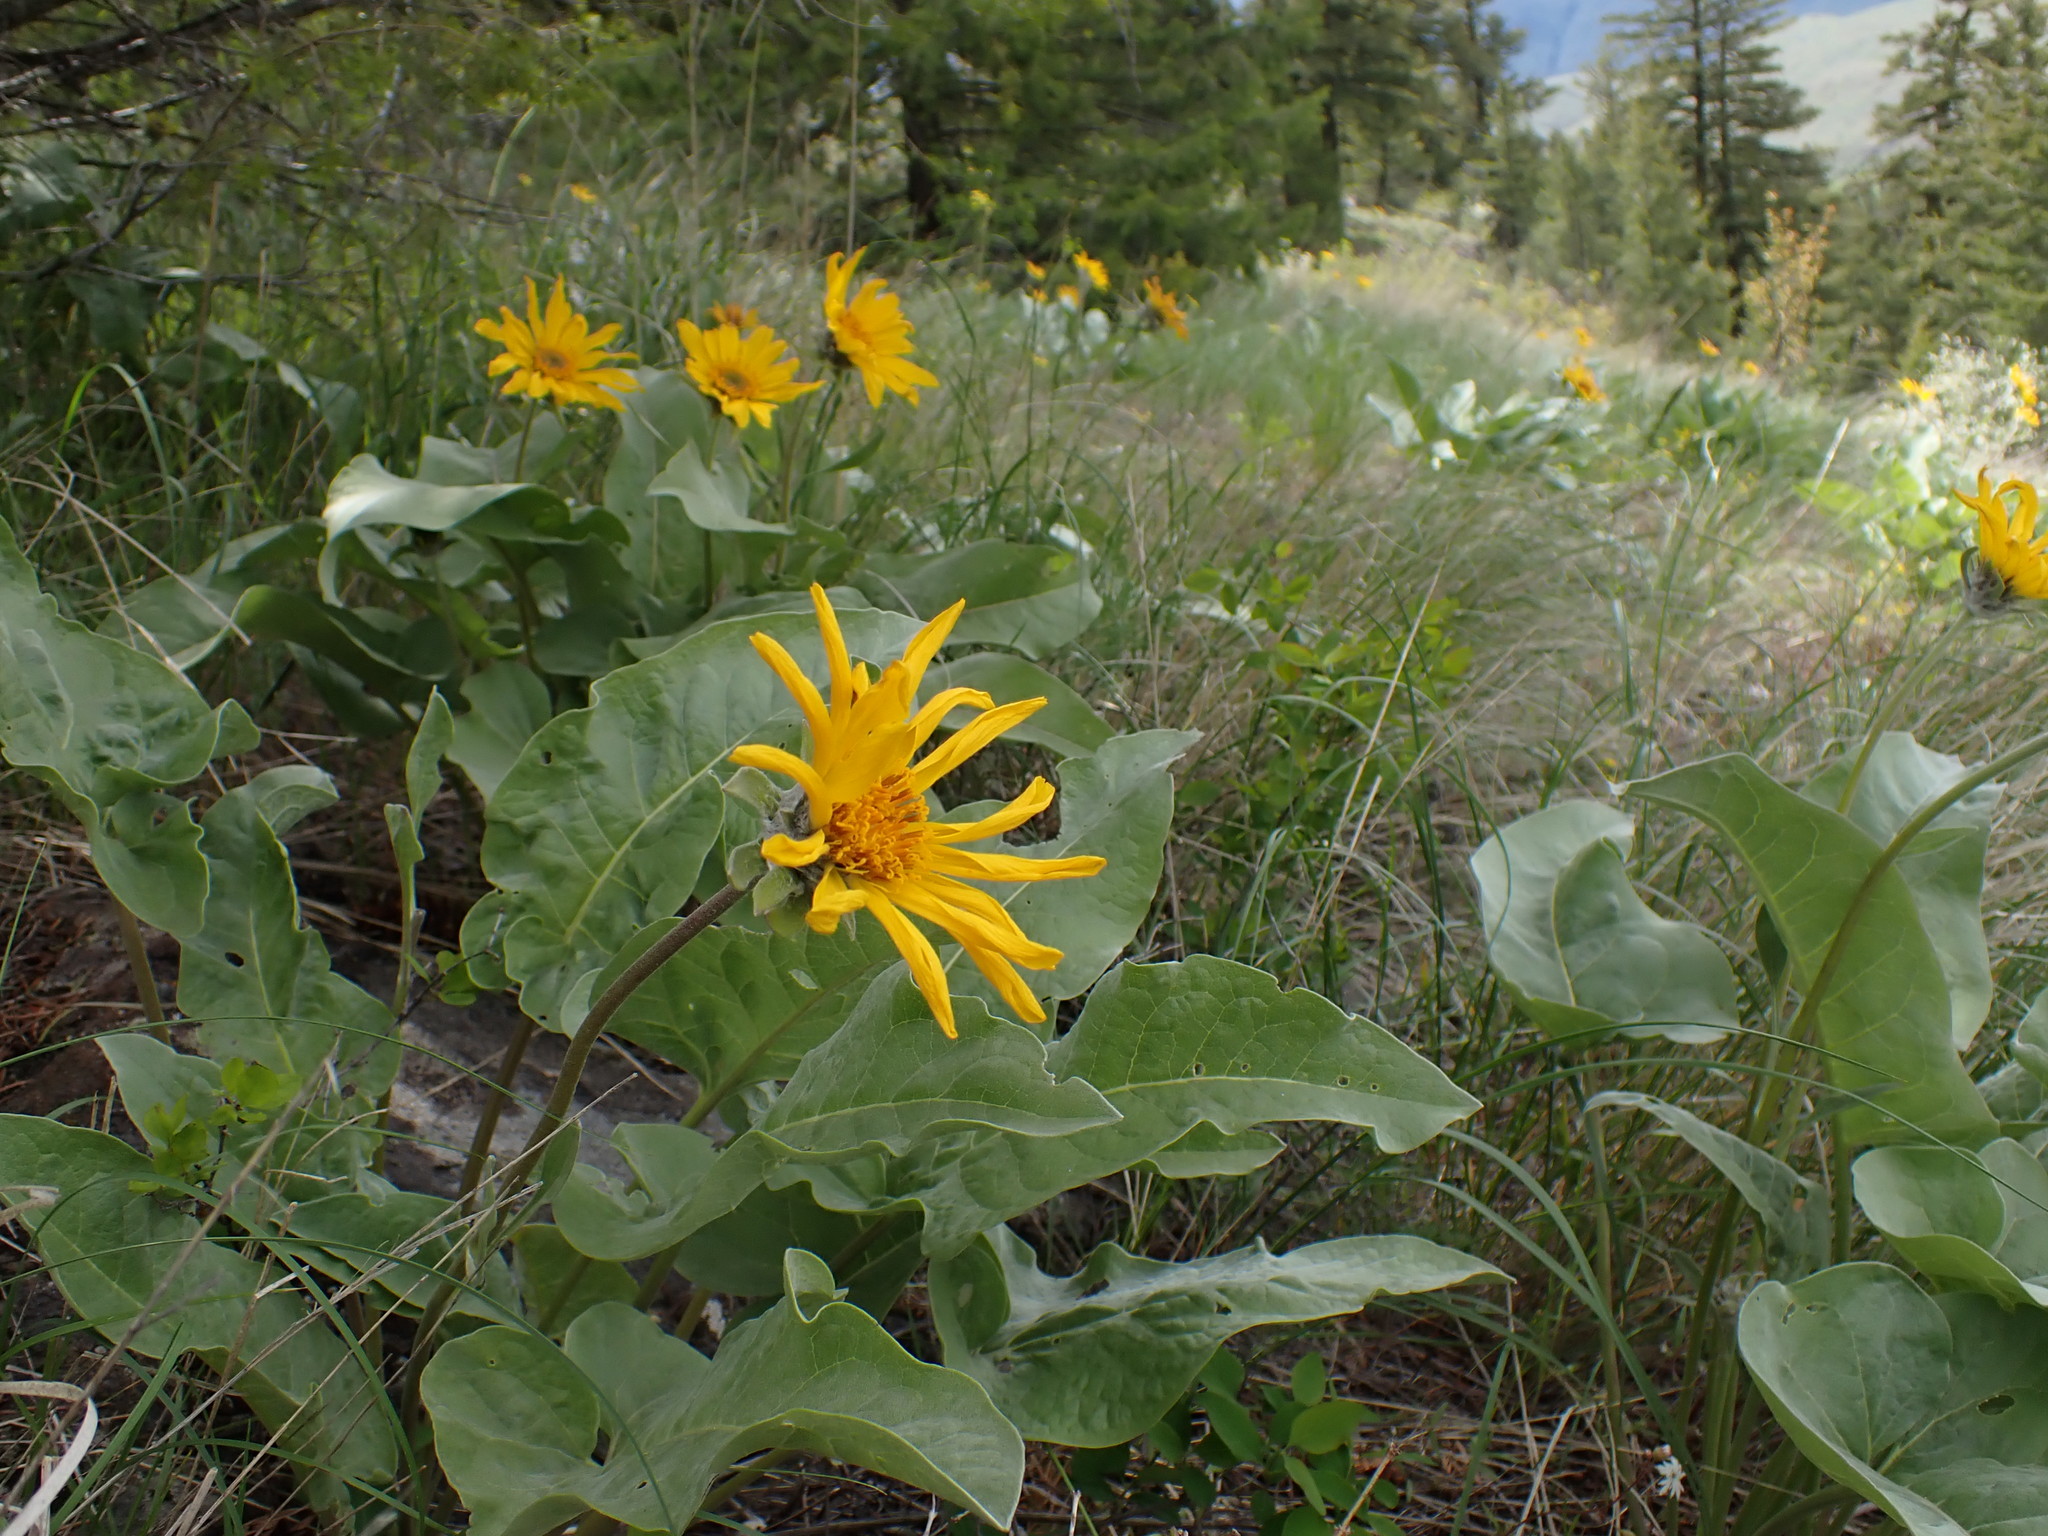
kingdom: Plantae
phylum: Tracheophyta
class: Magnoliopsida
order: Asterales
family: Asteraceae
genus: Wyethia
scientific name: Wyethia sagittata
